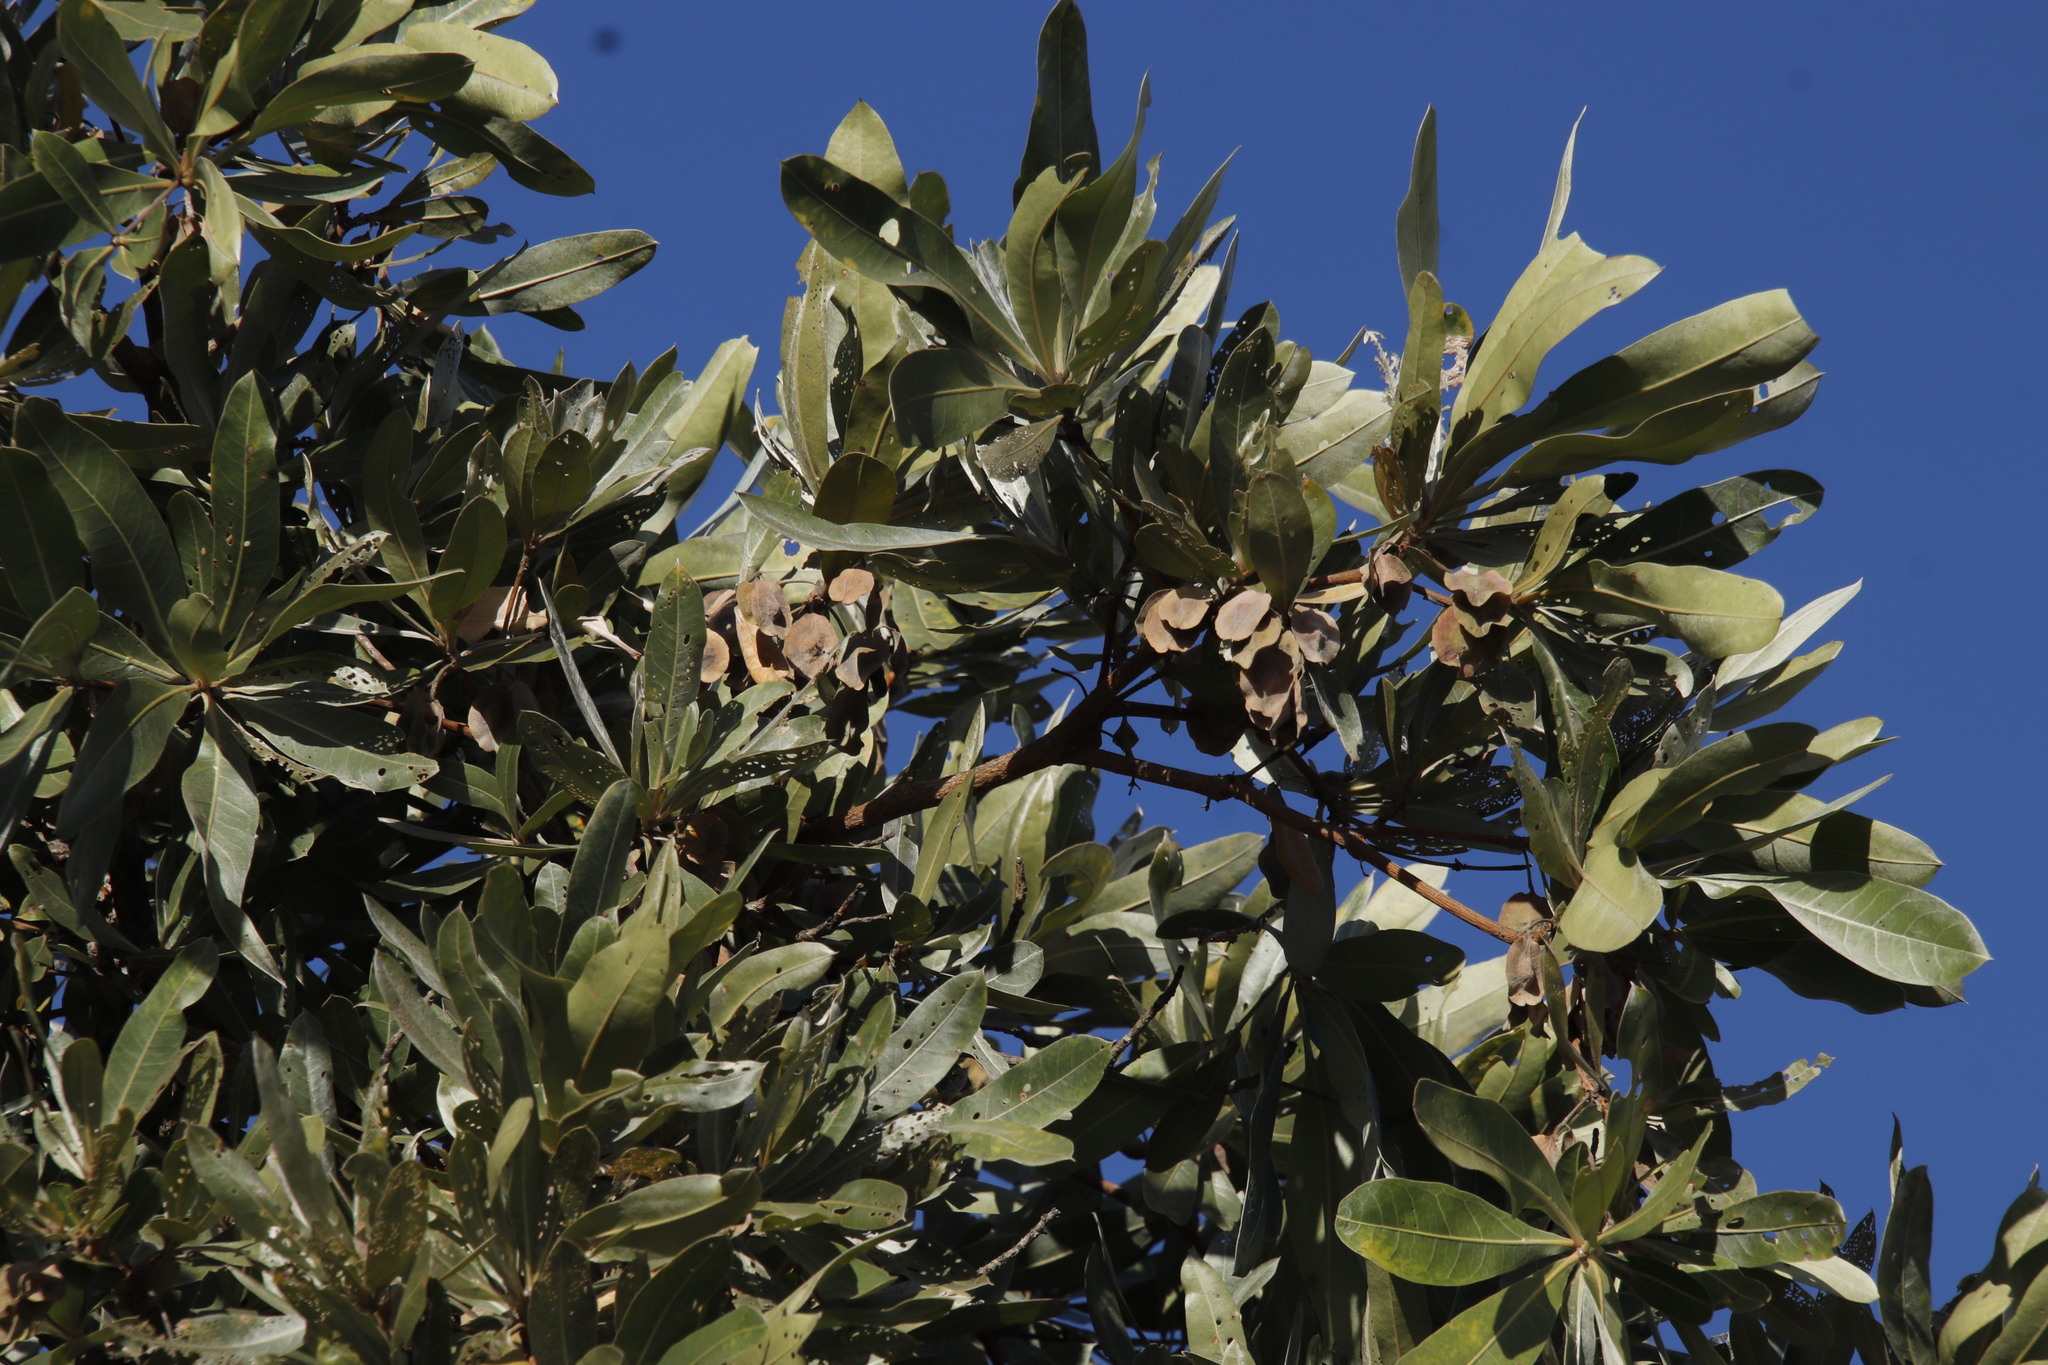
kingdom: Plantae
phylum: Tracheophyta
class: Magnoliopsida
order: Myrtales
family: Combretaceae
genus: Terminalia
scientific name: Terminalia sericea
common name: Clusterleaf
